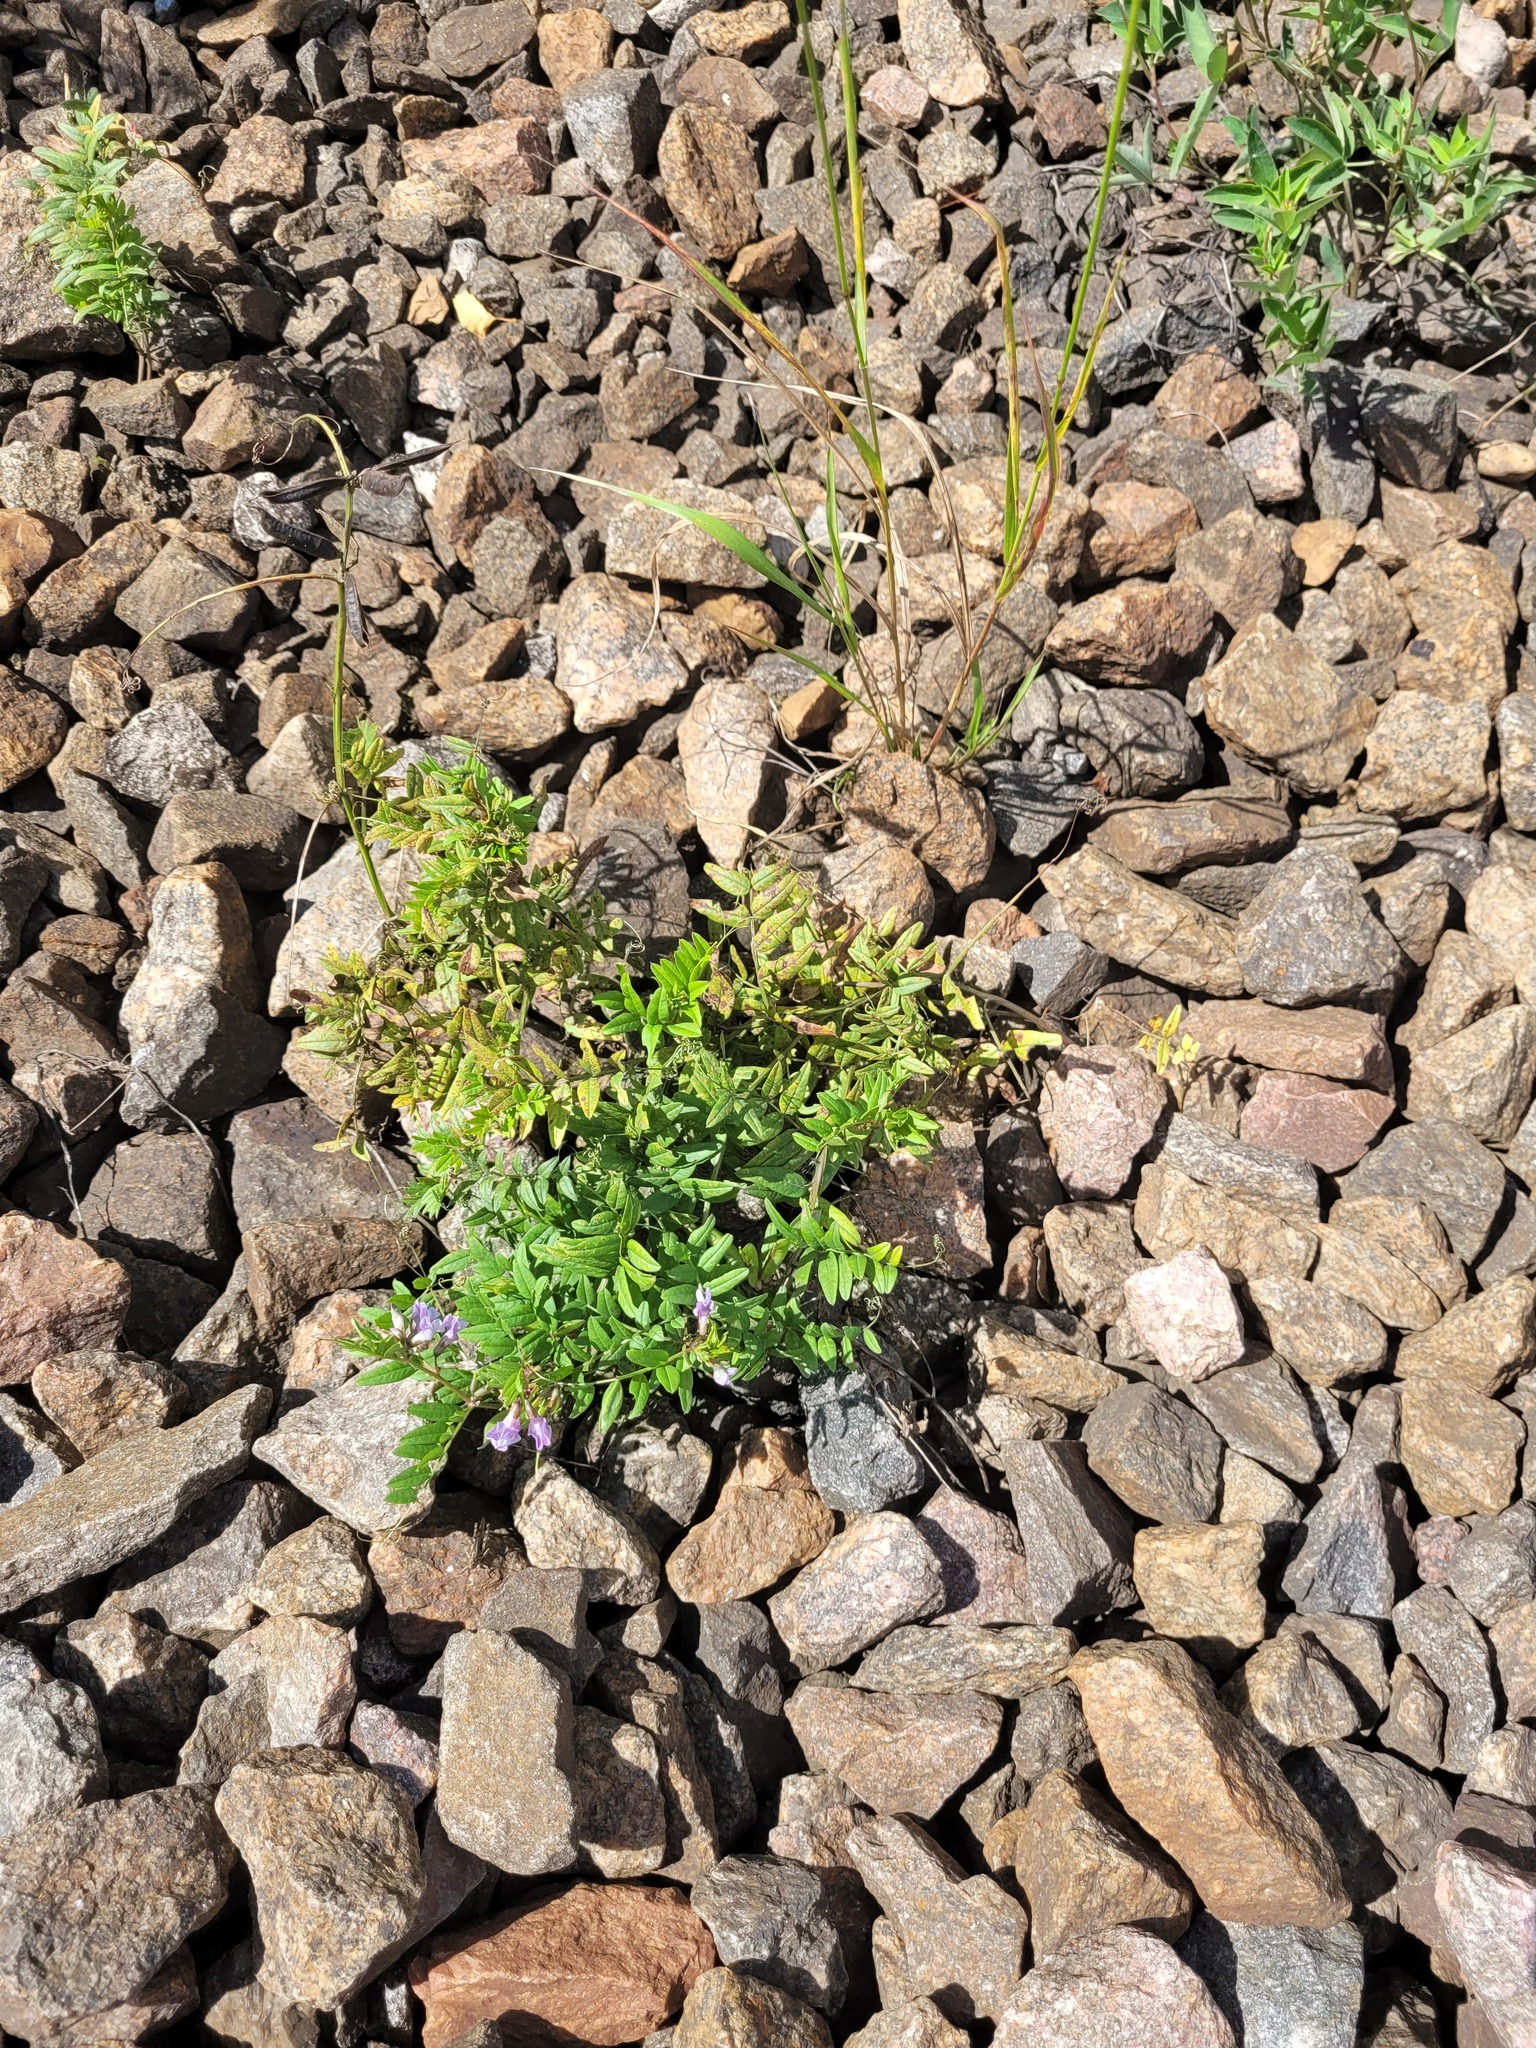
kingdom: Plantae
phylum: Tracheophyta
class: Magnoliopsida
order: Fabales
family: Fabaceae
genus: Vicia
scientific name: Vicia sepium
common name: Bush vetch
